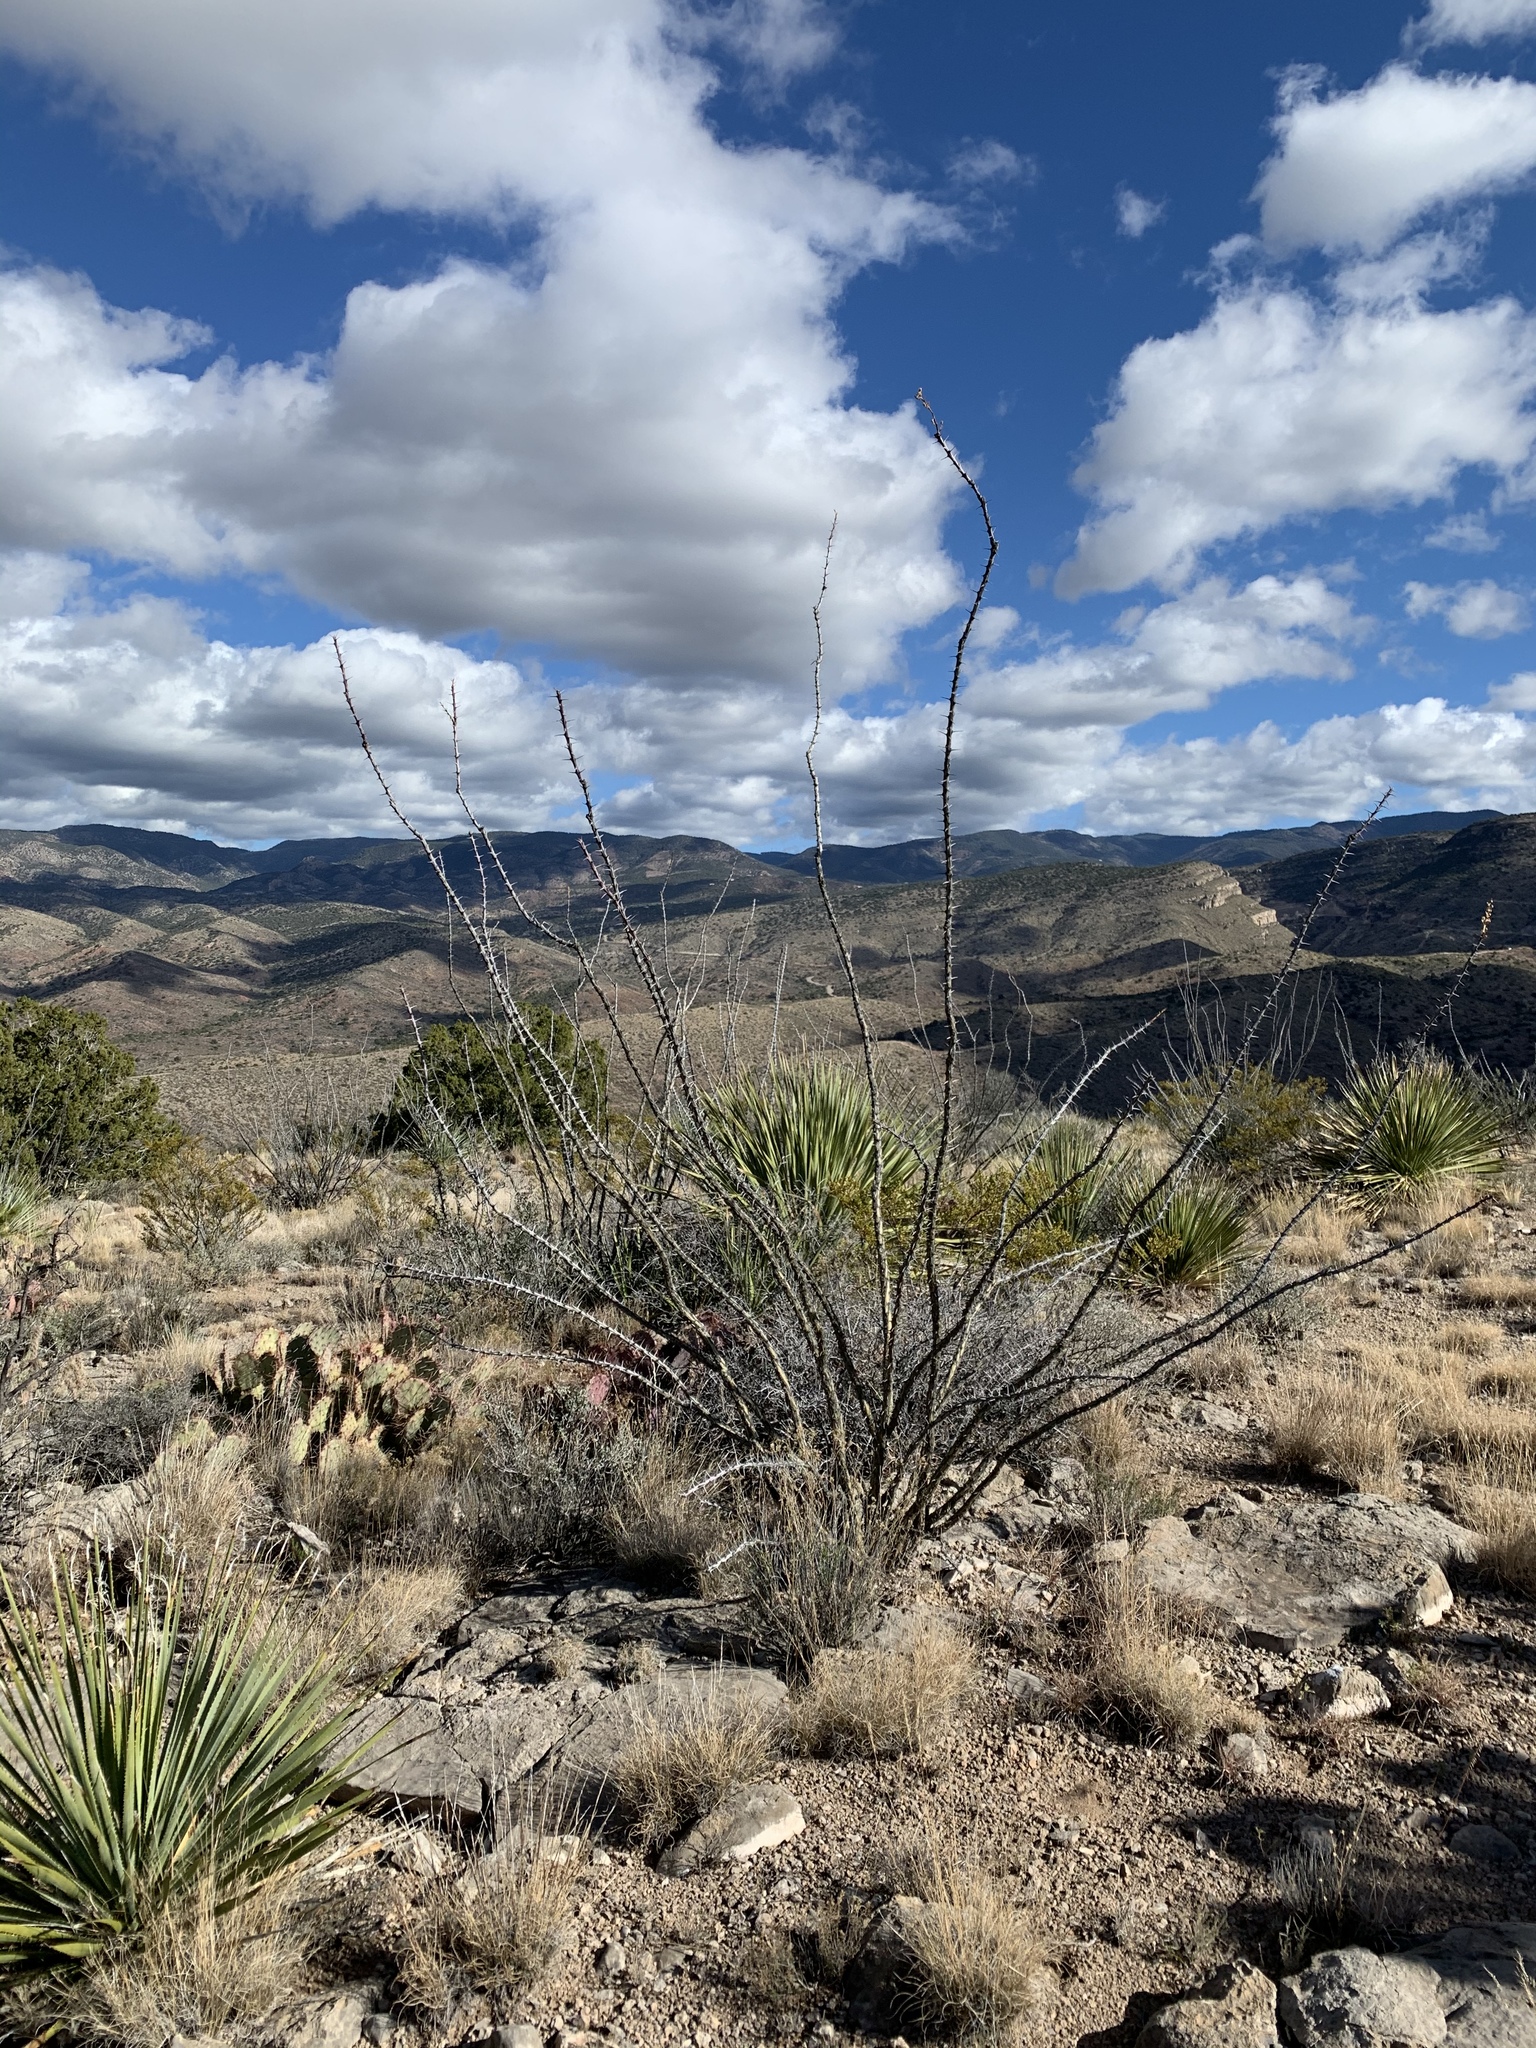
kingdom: Plantae
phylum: Tracheophyta
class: Magnoliopsida
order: Ericales
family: Fouquieriaceae
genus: Fouquieria
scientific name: Fouquieria splendens
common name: Vine-cactus
